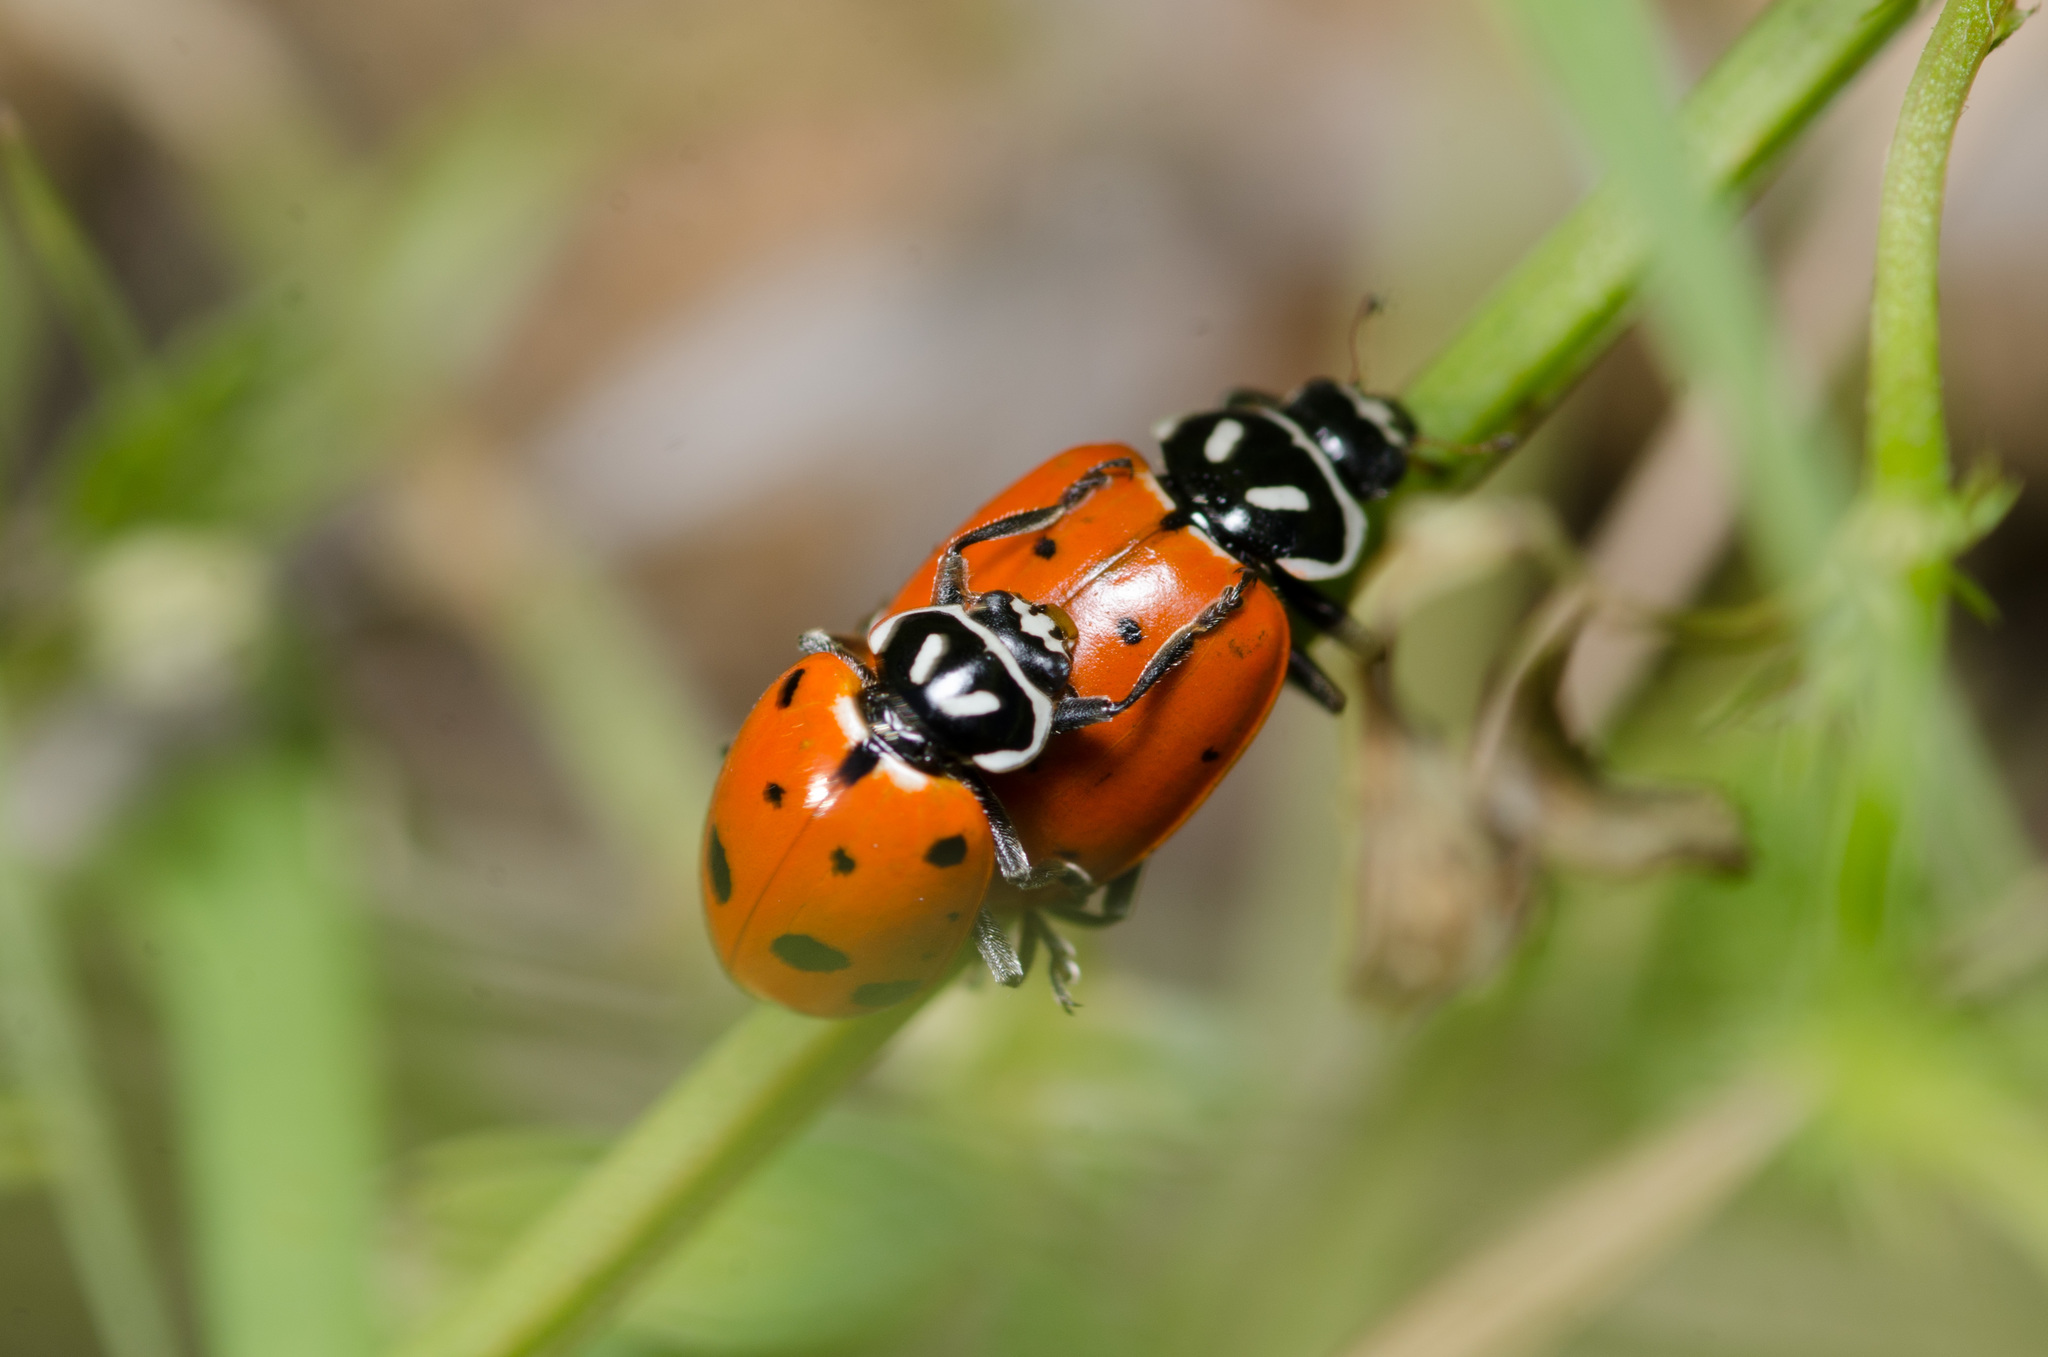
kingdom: Animalia
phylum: Arthropoda
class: Insecta
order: Coleoptera
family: Coccinellidae
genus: Hippodamia
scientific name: Hippodamia convergens
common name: Convergent lady beetle
